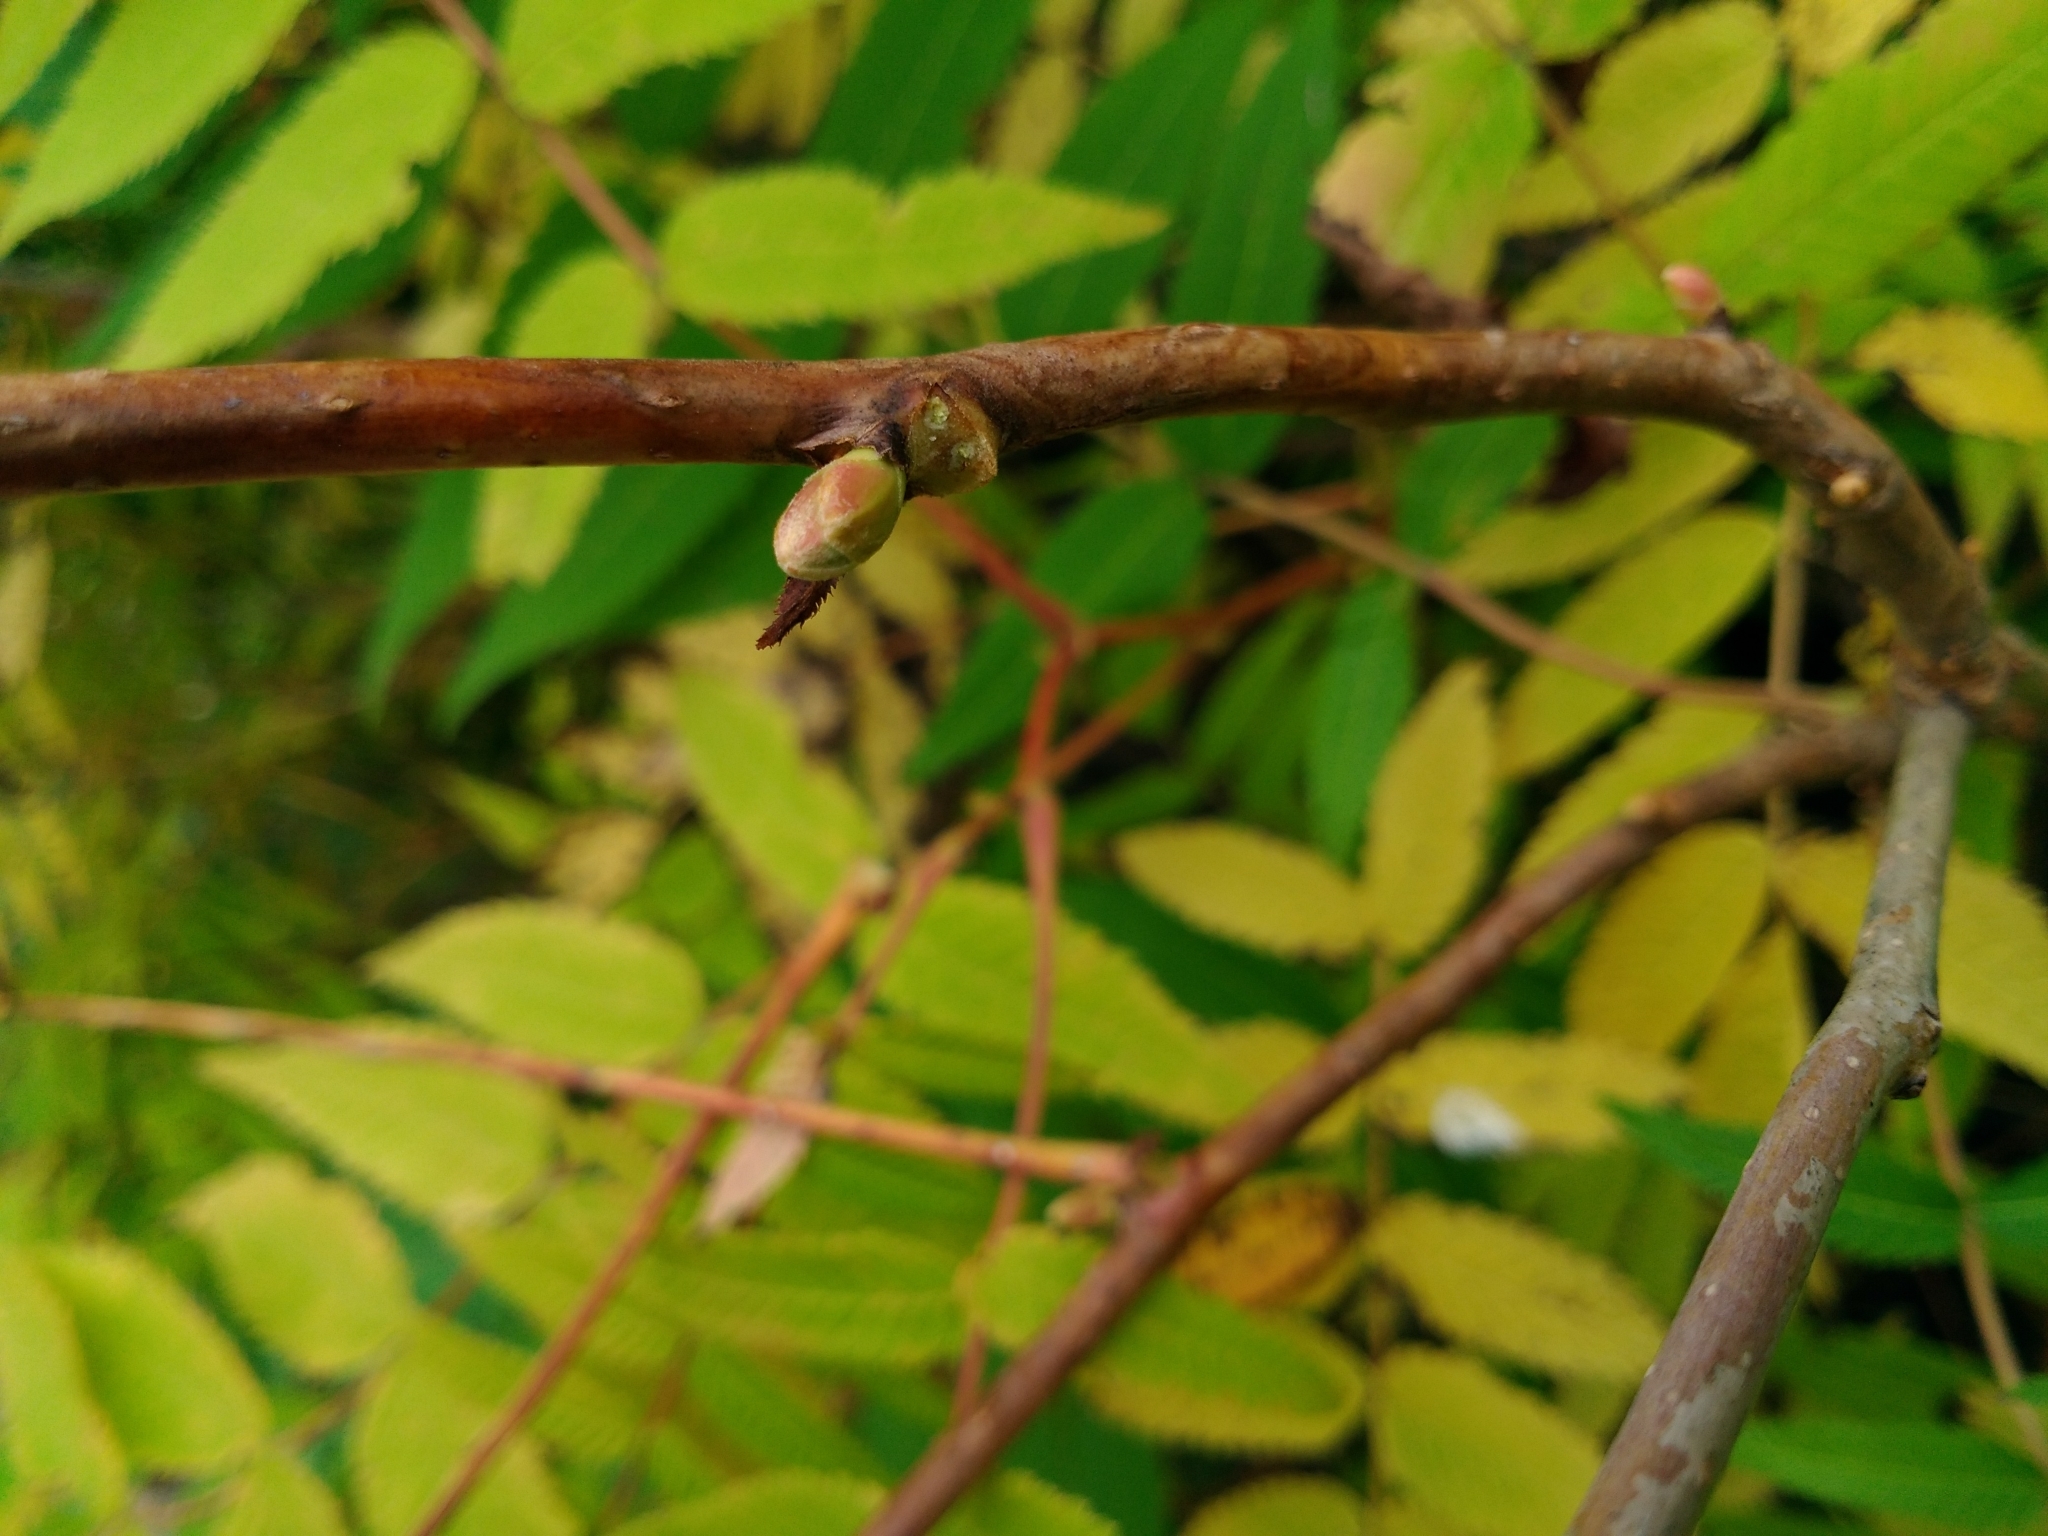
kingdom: Plantae
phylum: Tracheophyta
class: Magnoliopsida
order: Rosales
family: Rosaceae
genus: Sorbaria
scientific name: Sorbaria sorbifolia
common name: False spiraea
